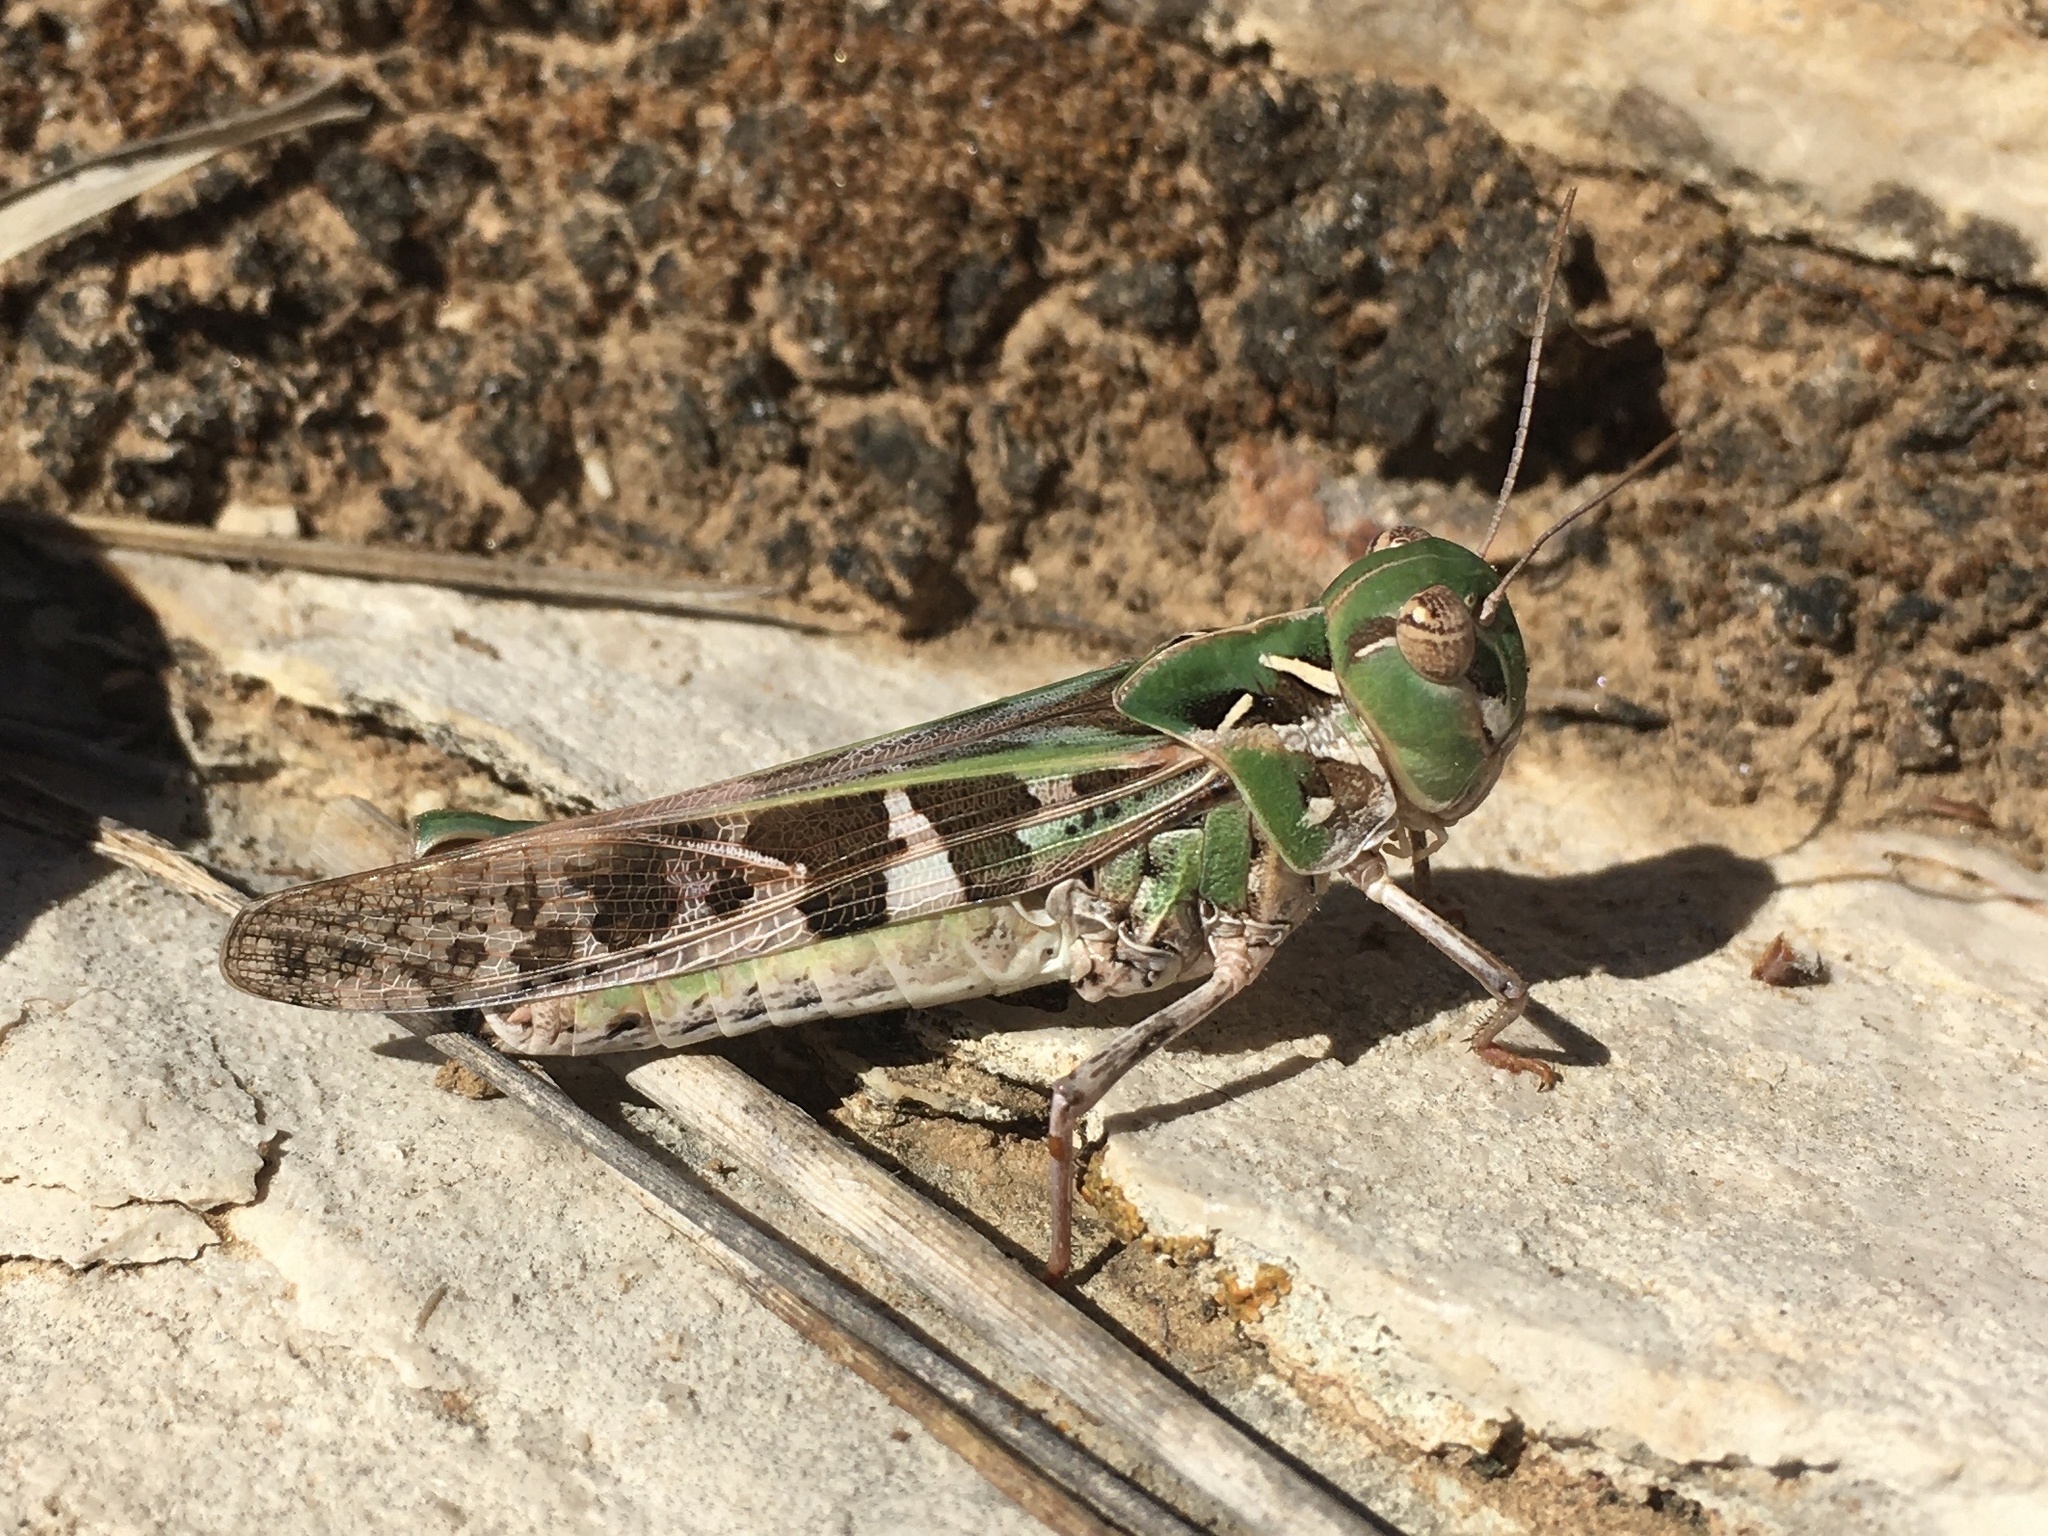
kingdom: Animalia
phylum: Arthropoda
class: Insecta
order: Orthoptera
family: Acrididae
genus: Oedaleus
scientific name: Oedaleus decorus
